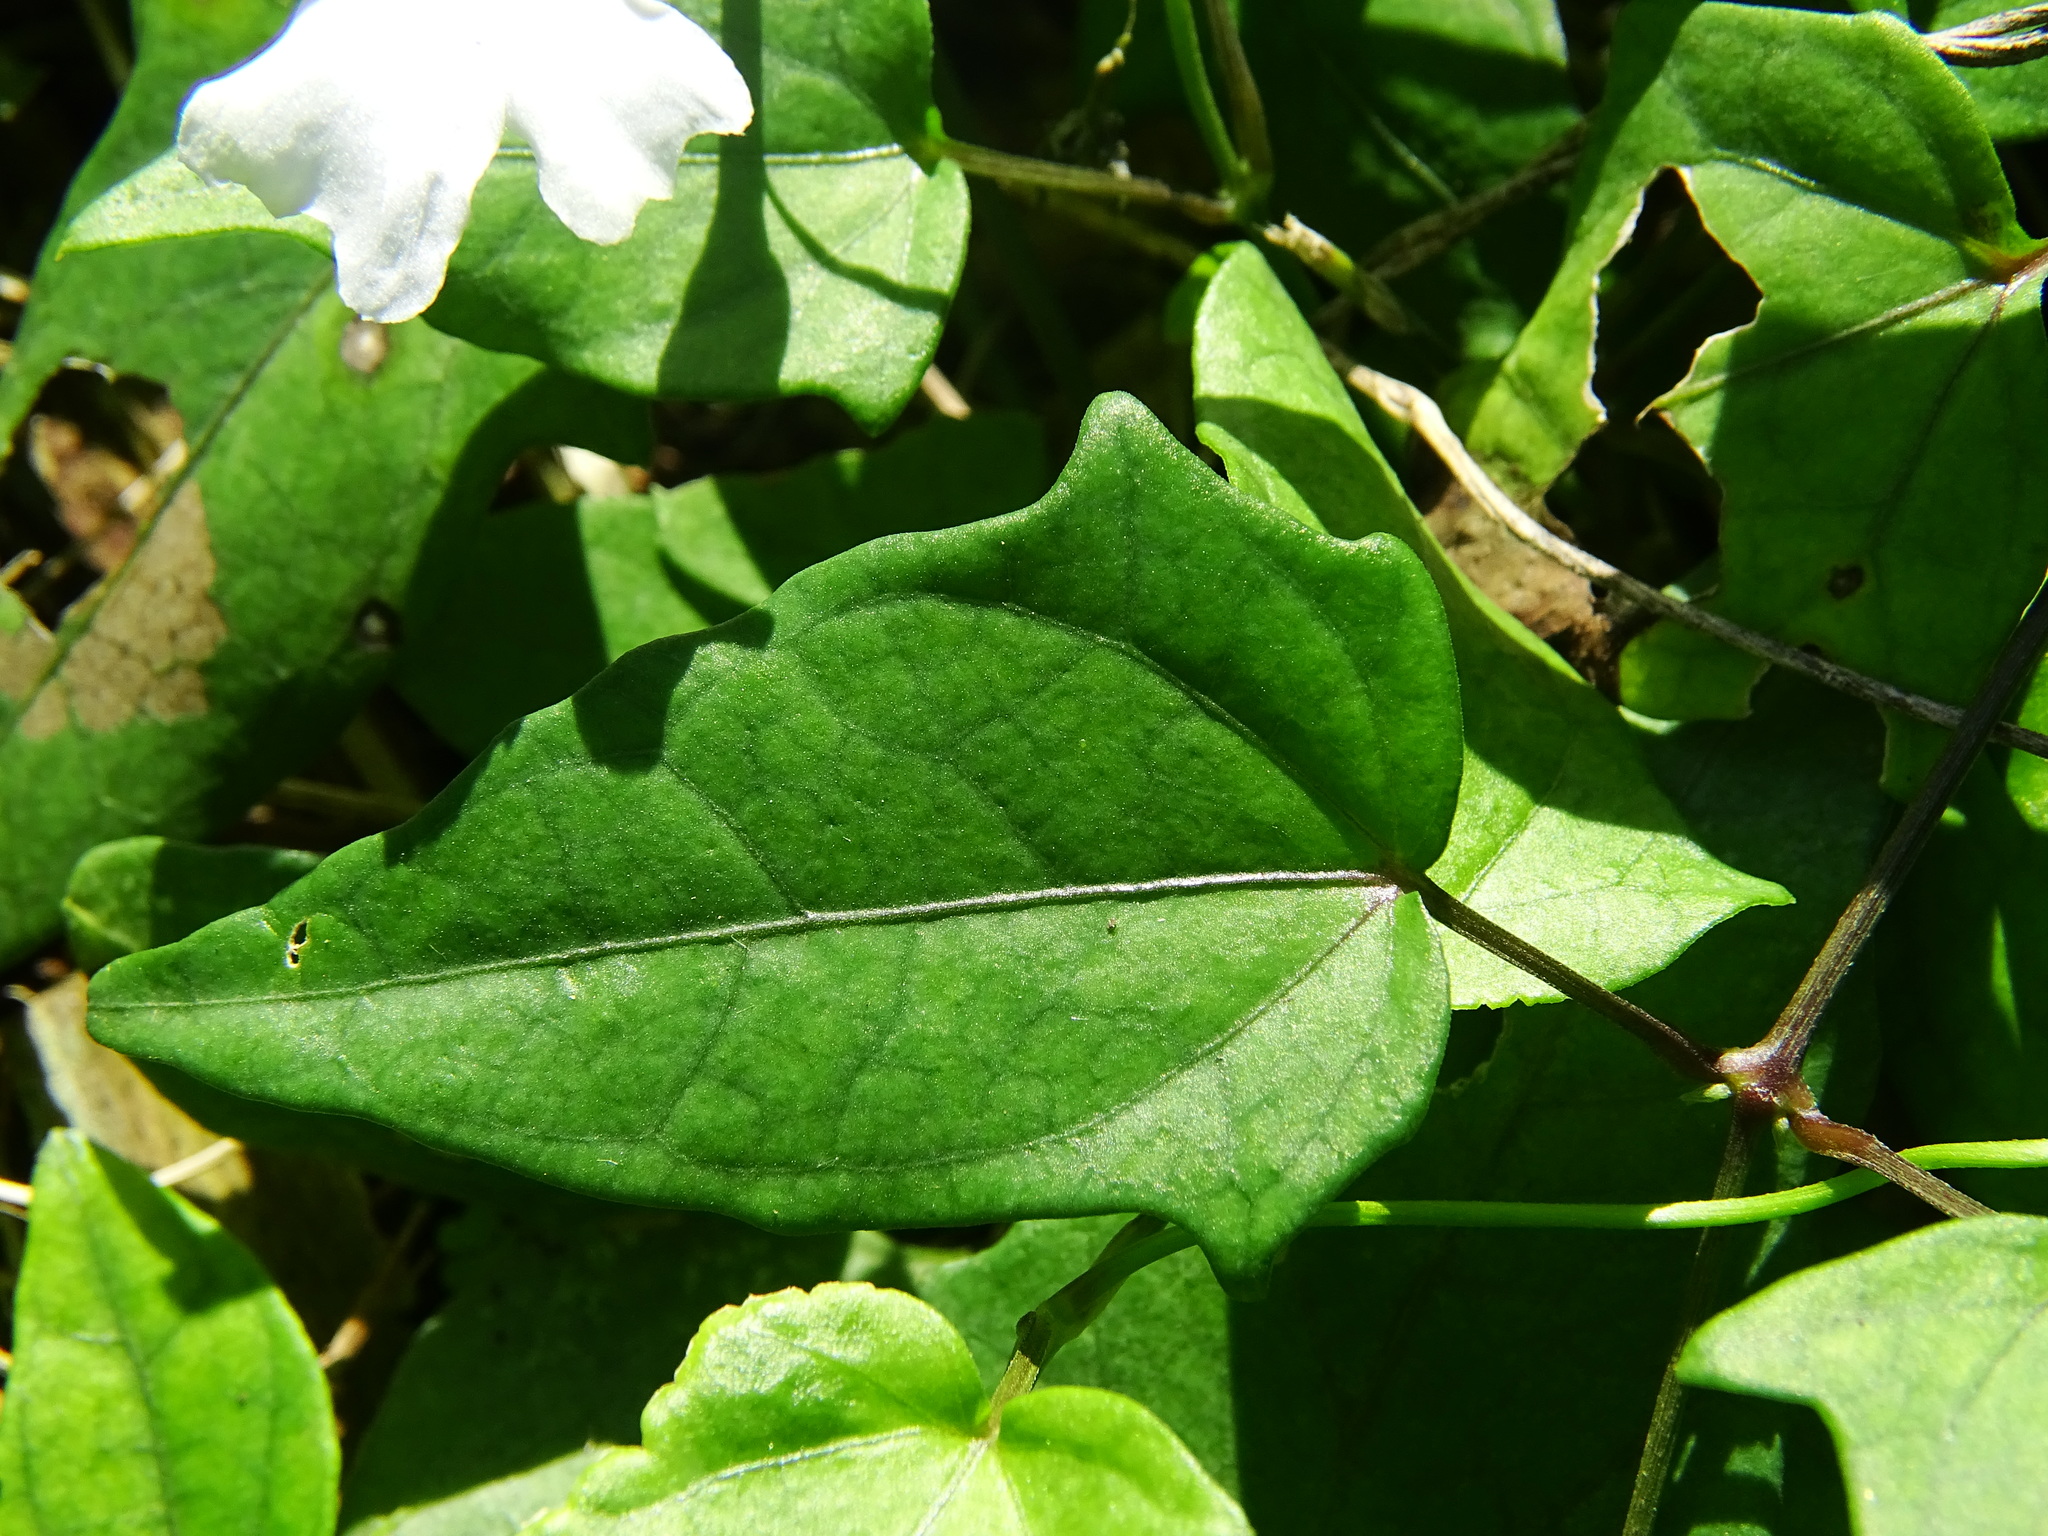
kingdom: Plantae
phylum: Tracheophyta
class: Magnoliopsida
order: Lamiales
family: Acanthaceae
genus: Thunbergia
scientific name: Thunbergia fragrans
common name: Whitelady
